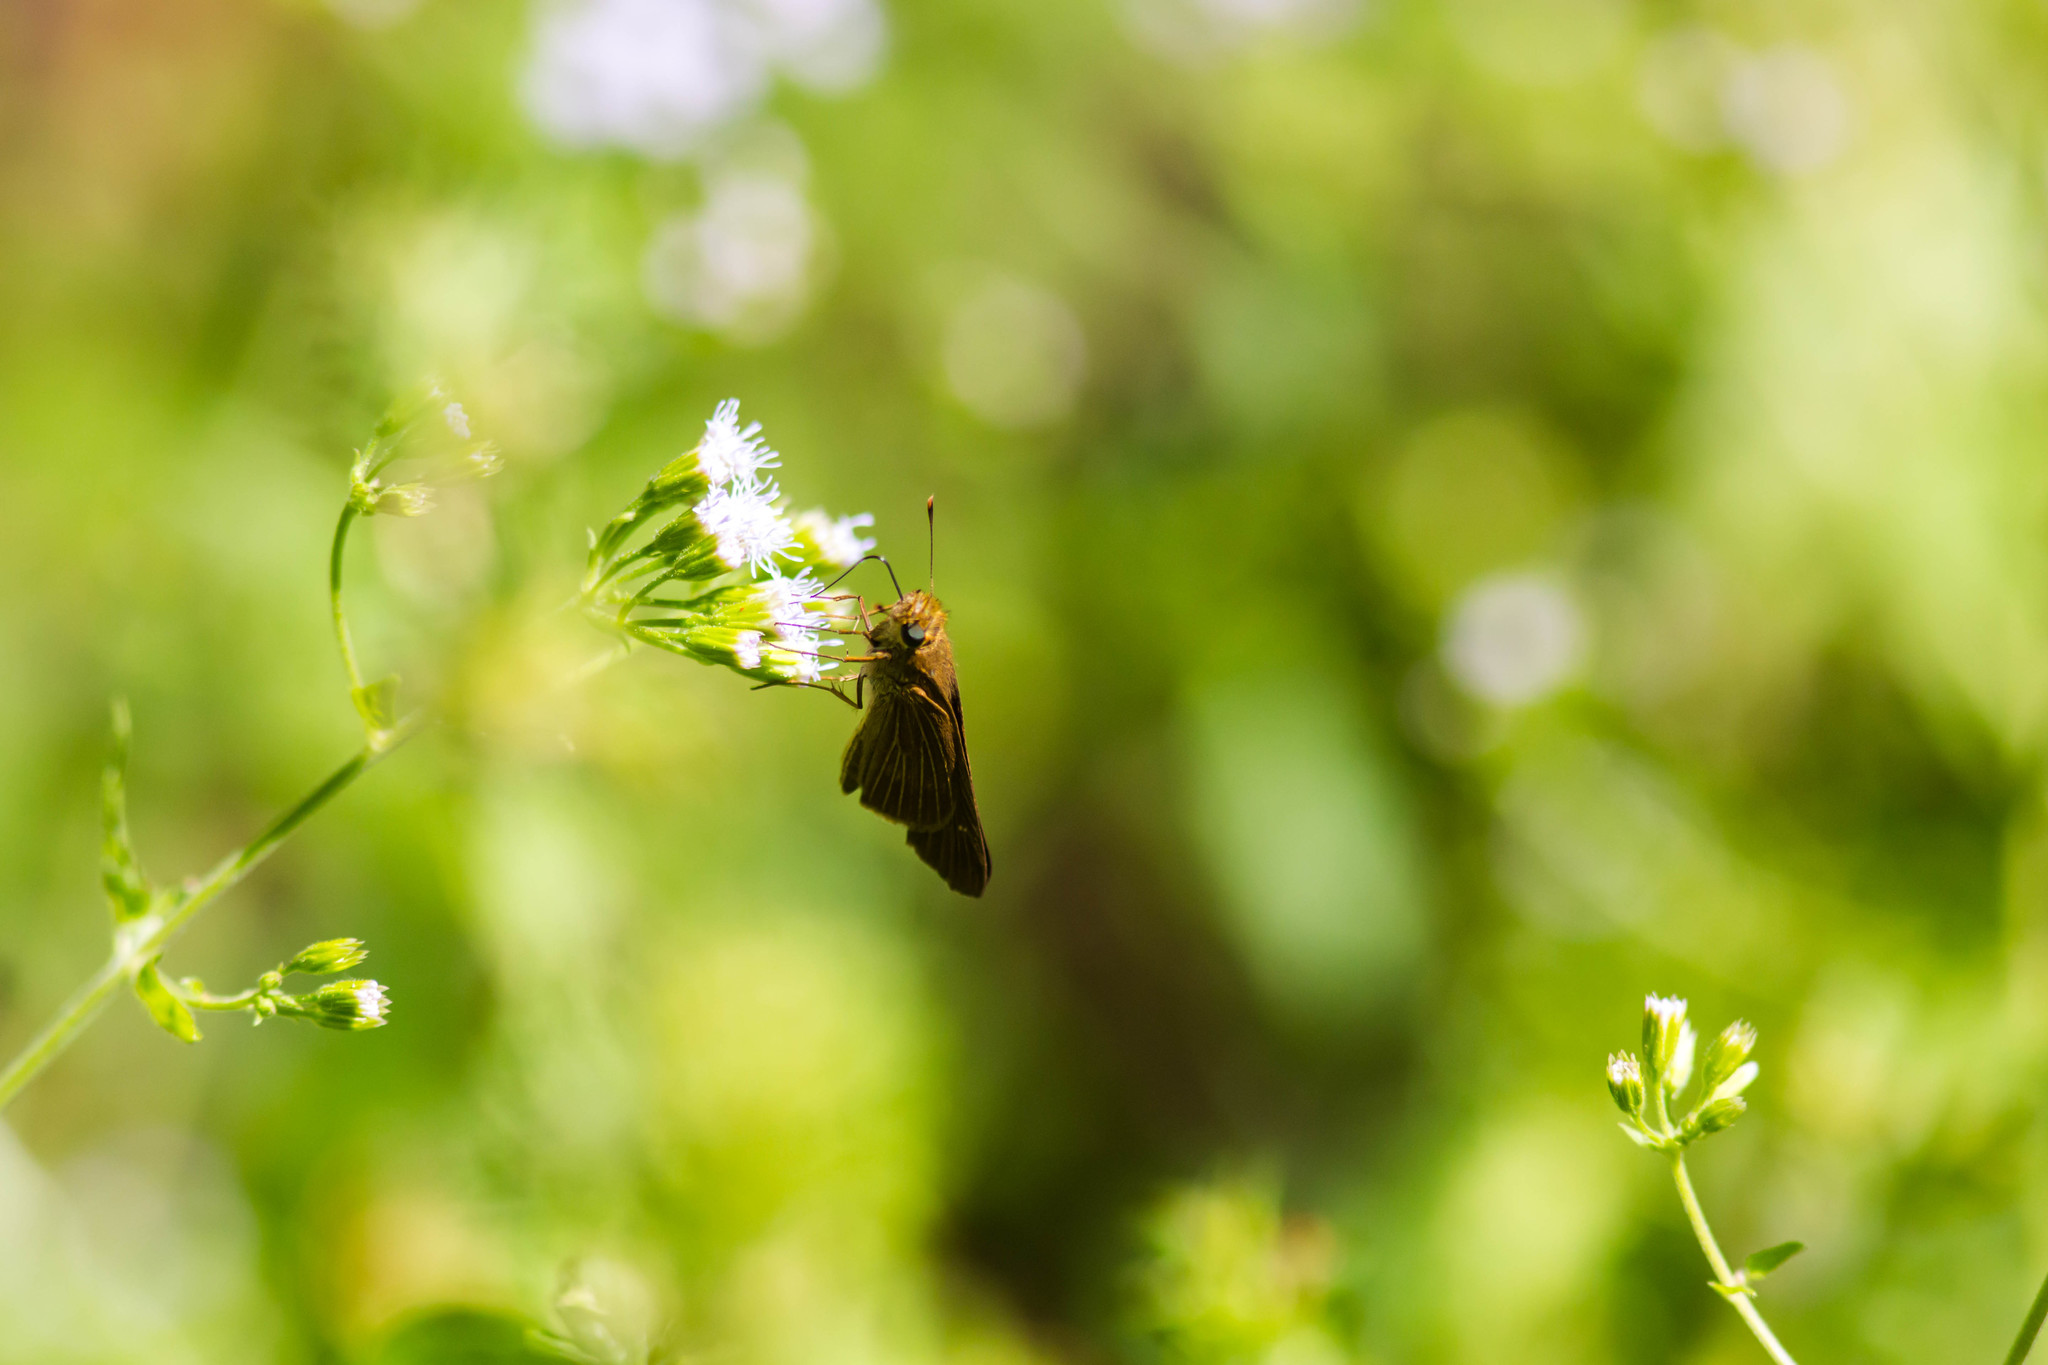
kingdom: Animalia
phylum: Arthropoda
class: Insecta
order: Lepidoptera
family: Hesperiidae
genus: Panoquina
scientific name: Panoquina ocola
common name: Ocola skipper
